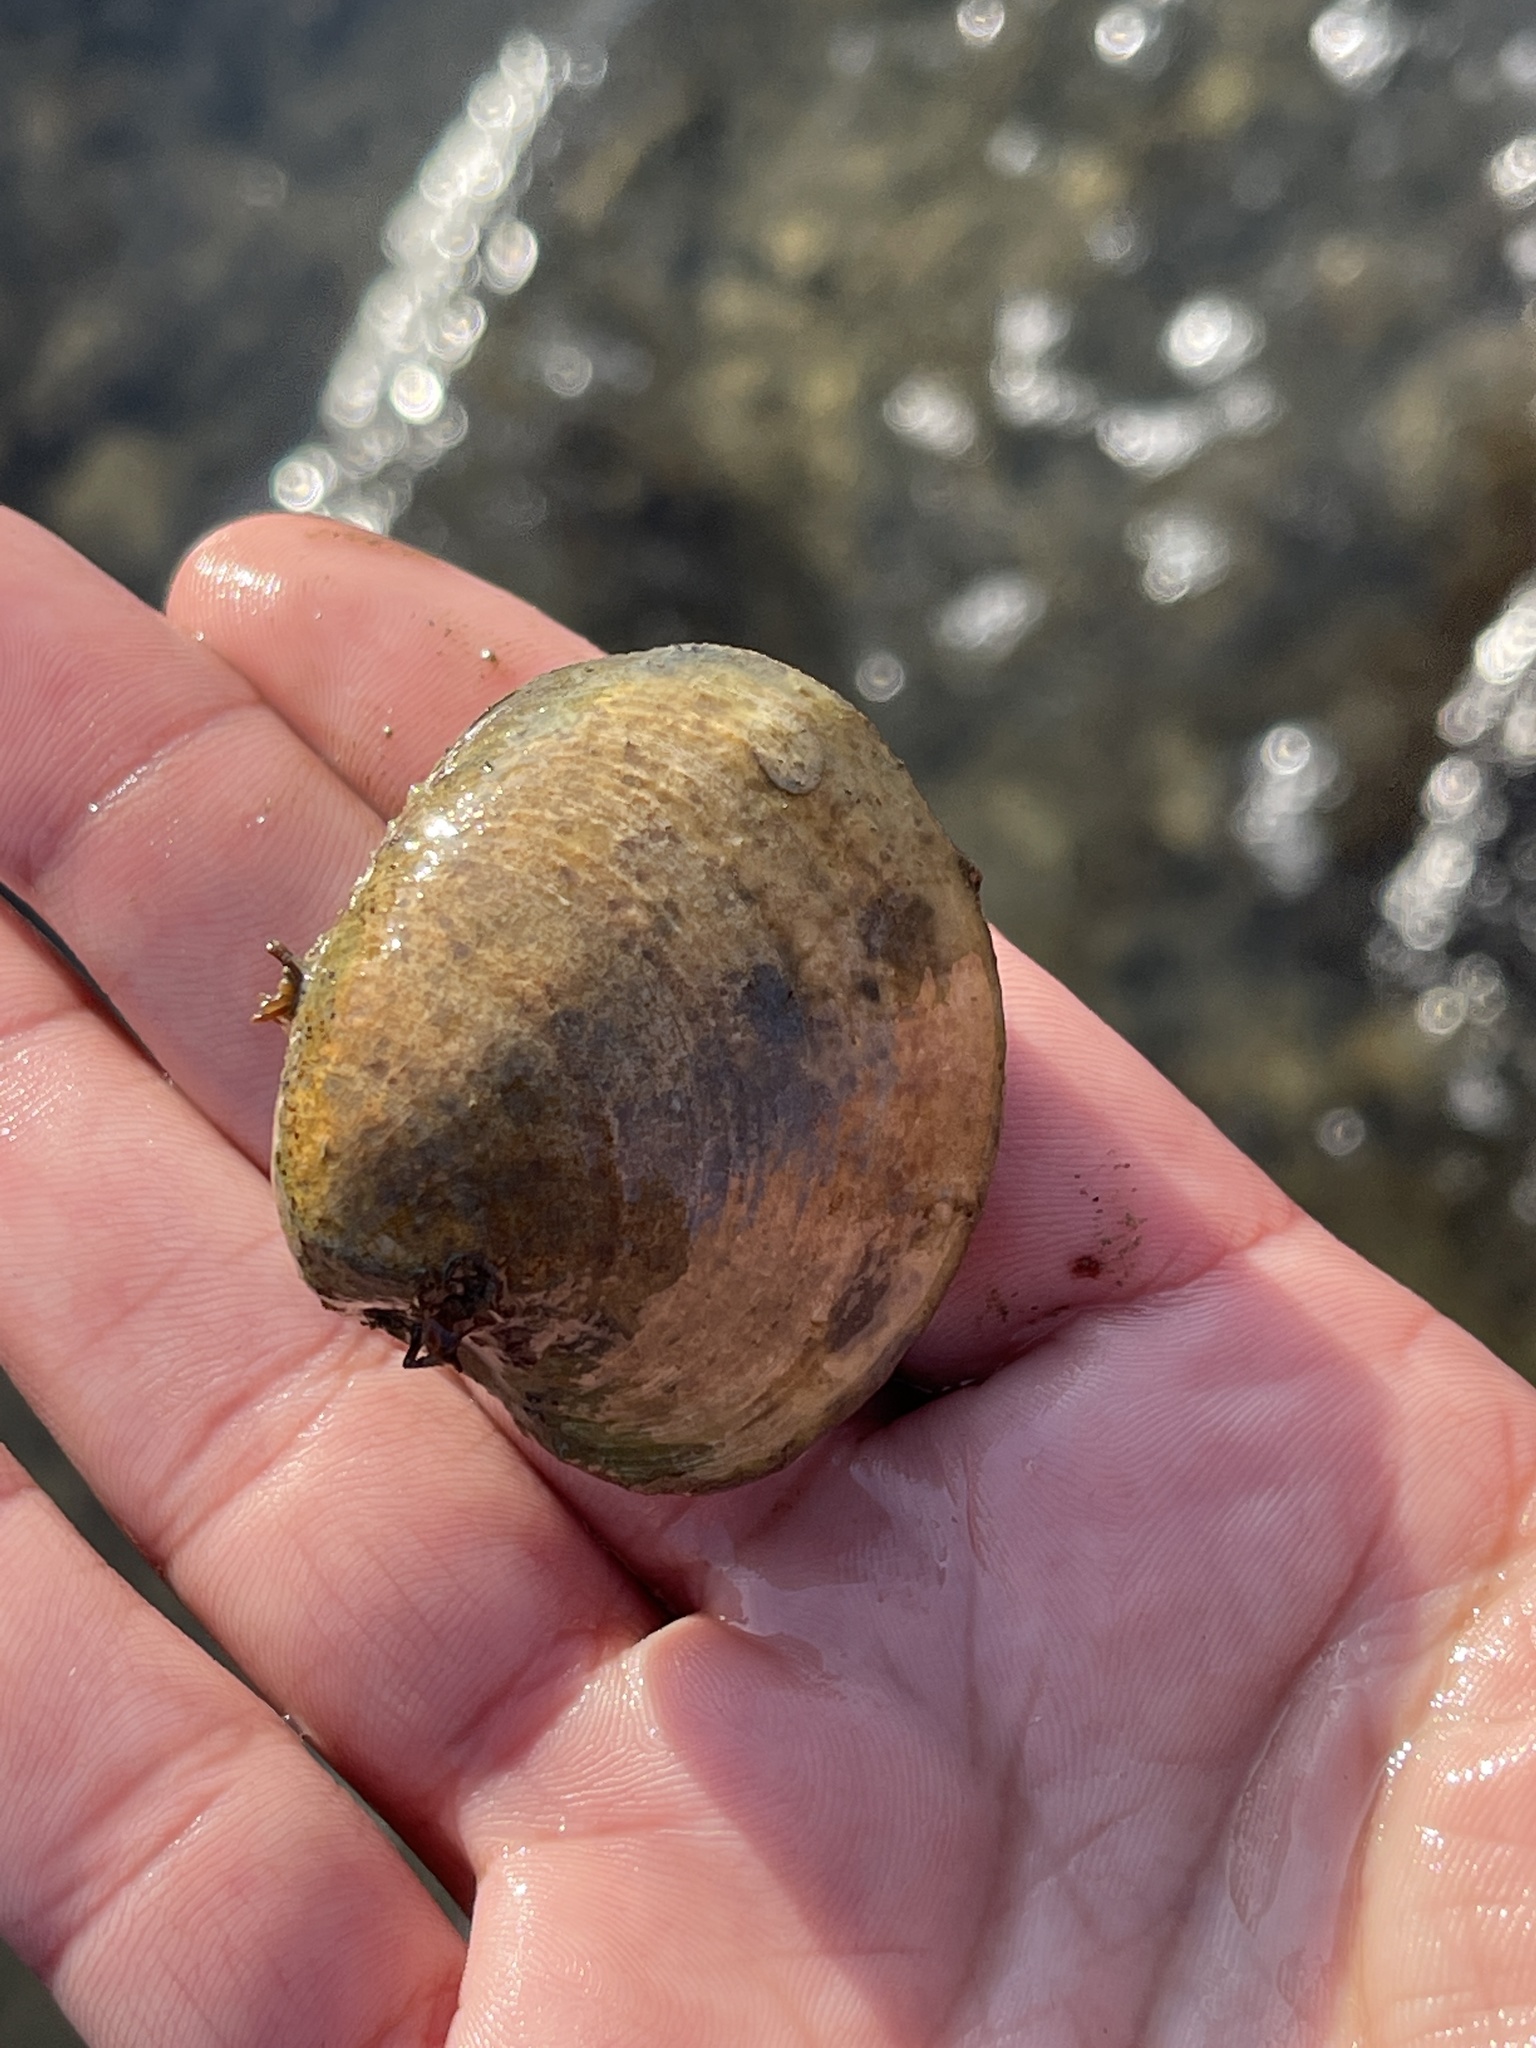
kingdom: Animalia
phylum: Mollusca
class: Bivalvia
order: Venerida
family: Veneridae
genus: Mercenaria
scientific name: Mercenaria mercenaria
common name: American hard-shelled clam
